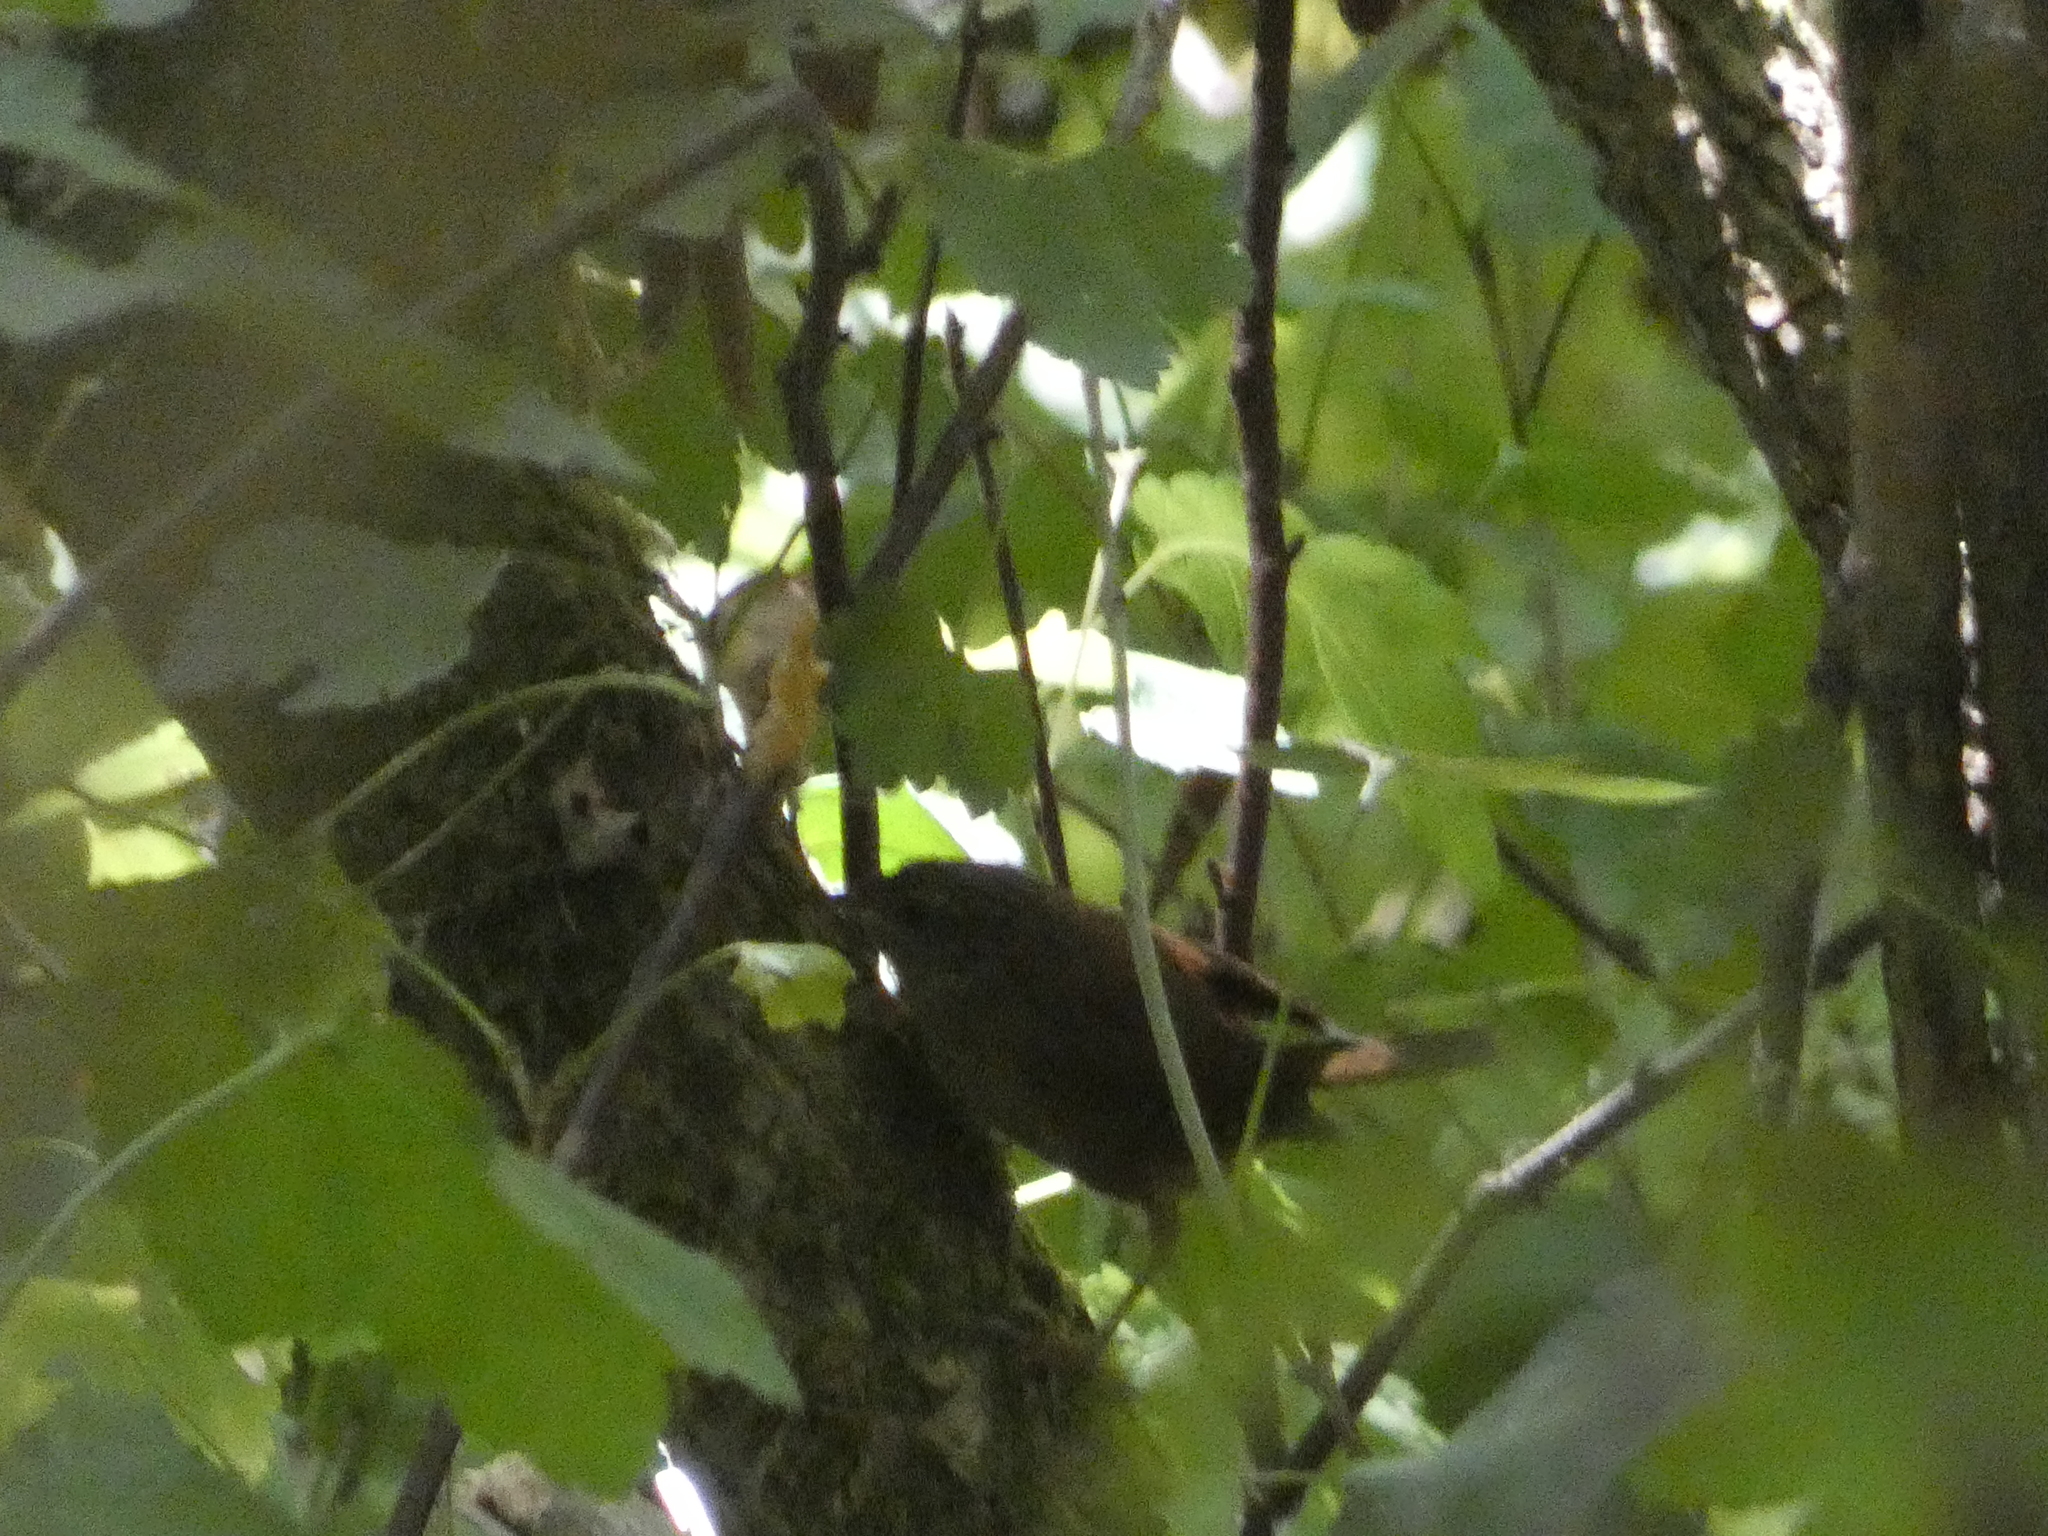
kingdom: Animalia
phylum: Chordata
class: Aves
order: Passeriformes
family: Troglodytidae
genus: Troglodytes
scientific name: Troglodytes troglodytes
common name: Eurasian wren
